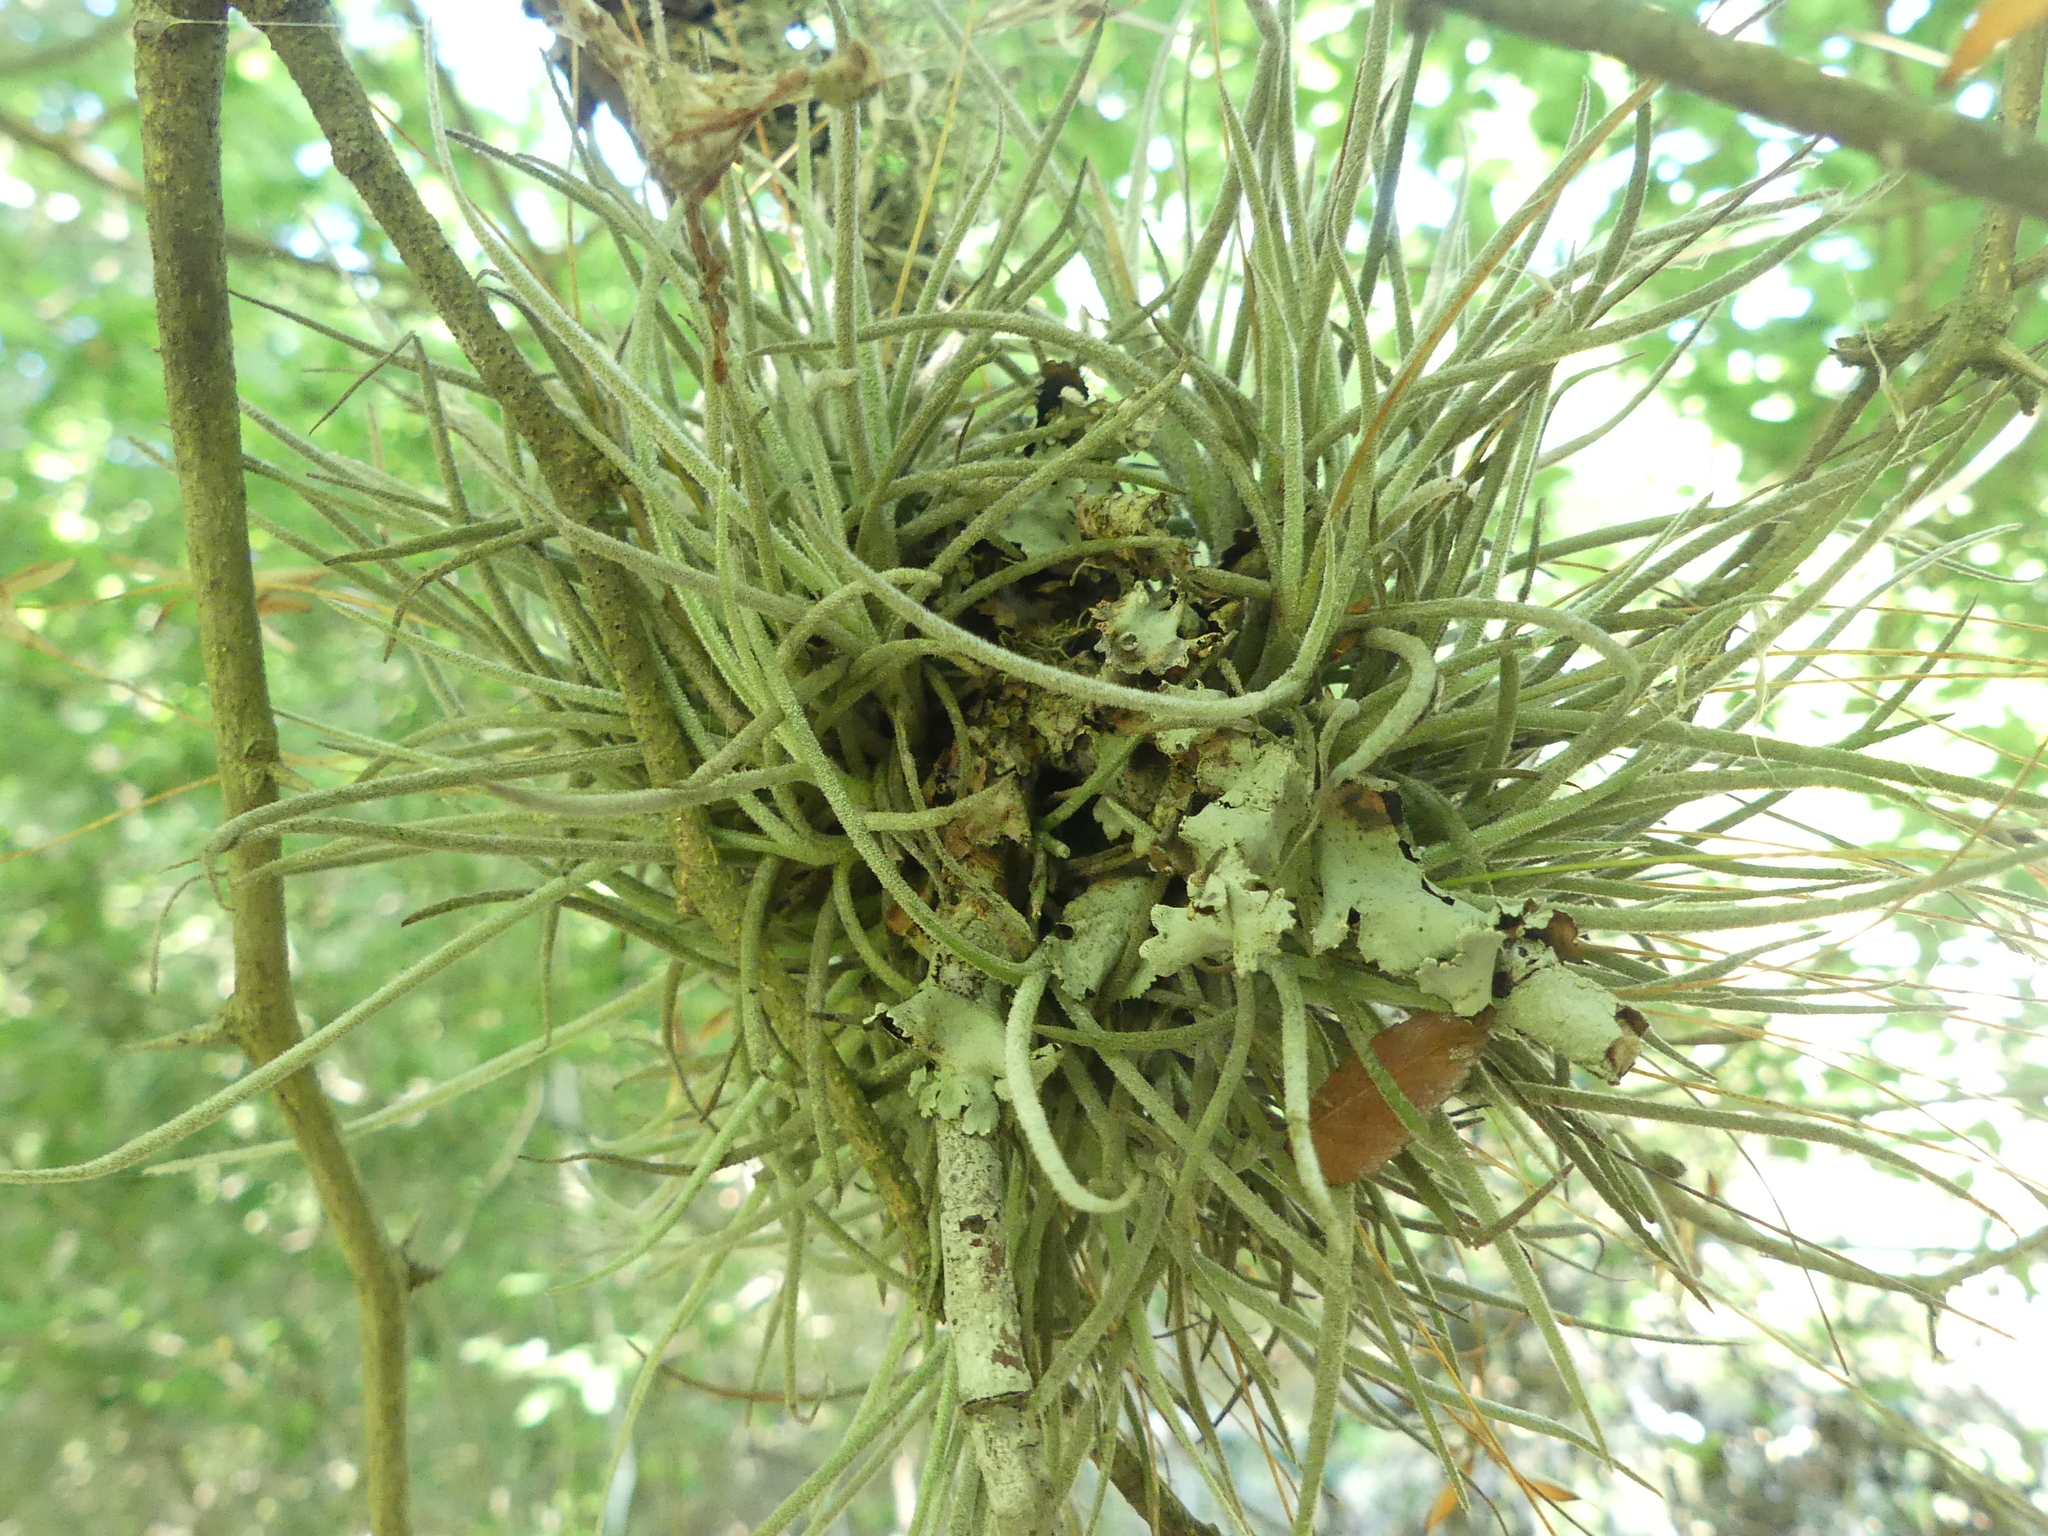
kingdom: Plantae
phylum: Tracheophyta
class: Liliopsida
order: Poales
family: Bromeliaceae
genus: Tillandsia
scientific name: Tillandsia recurvata
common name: Small ballmoss
